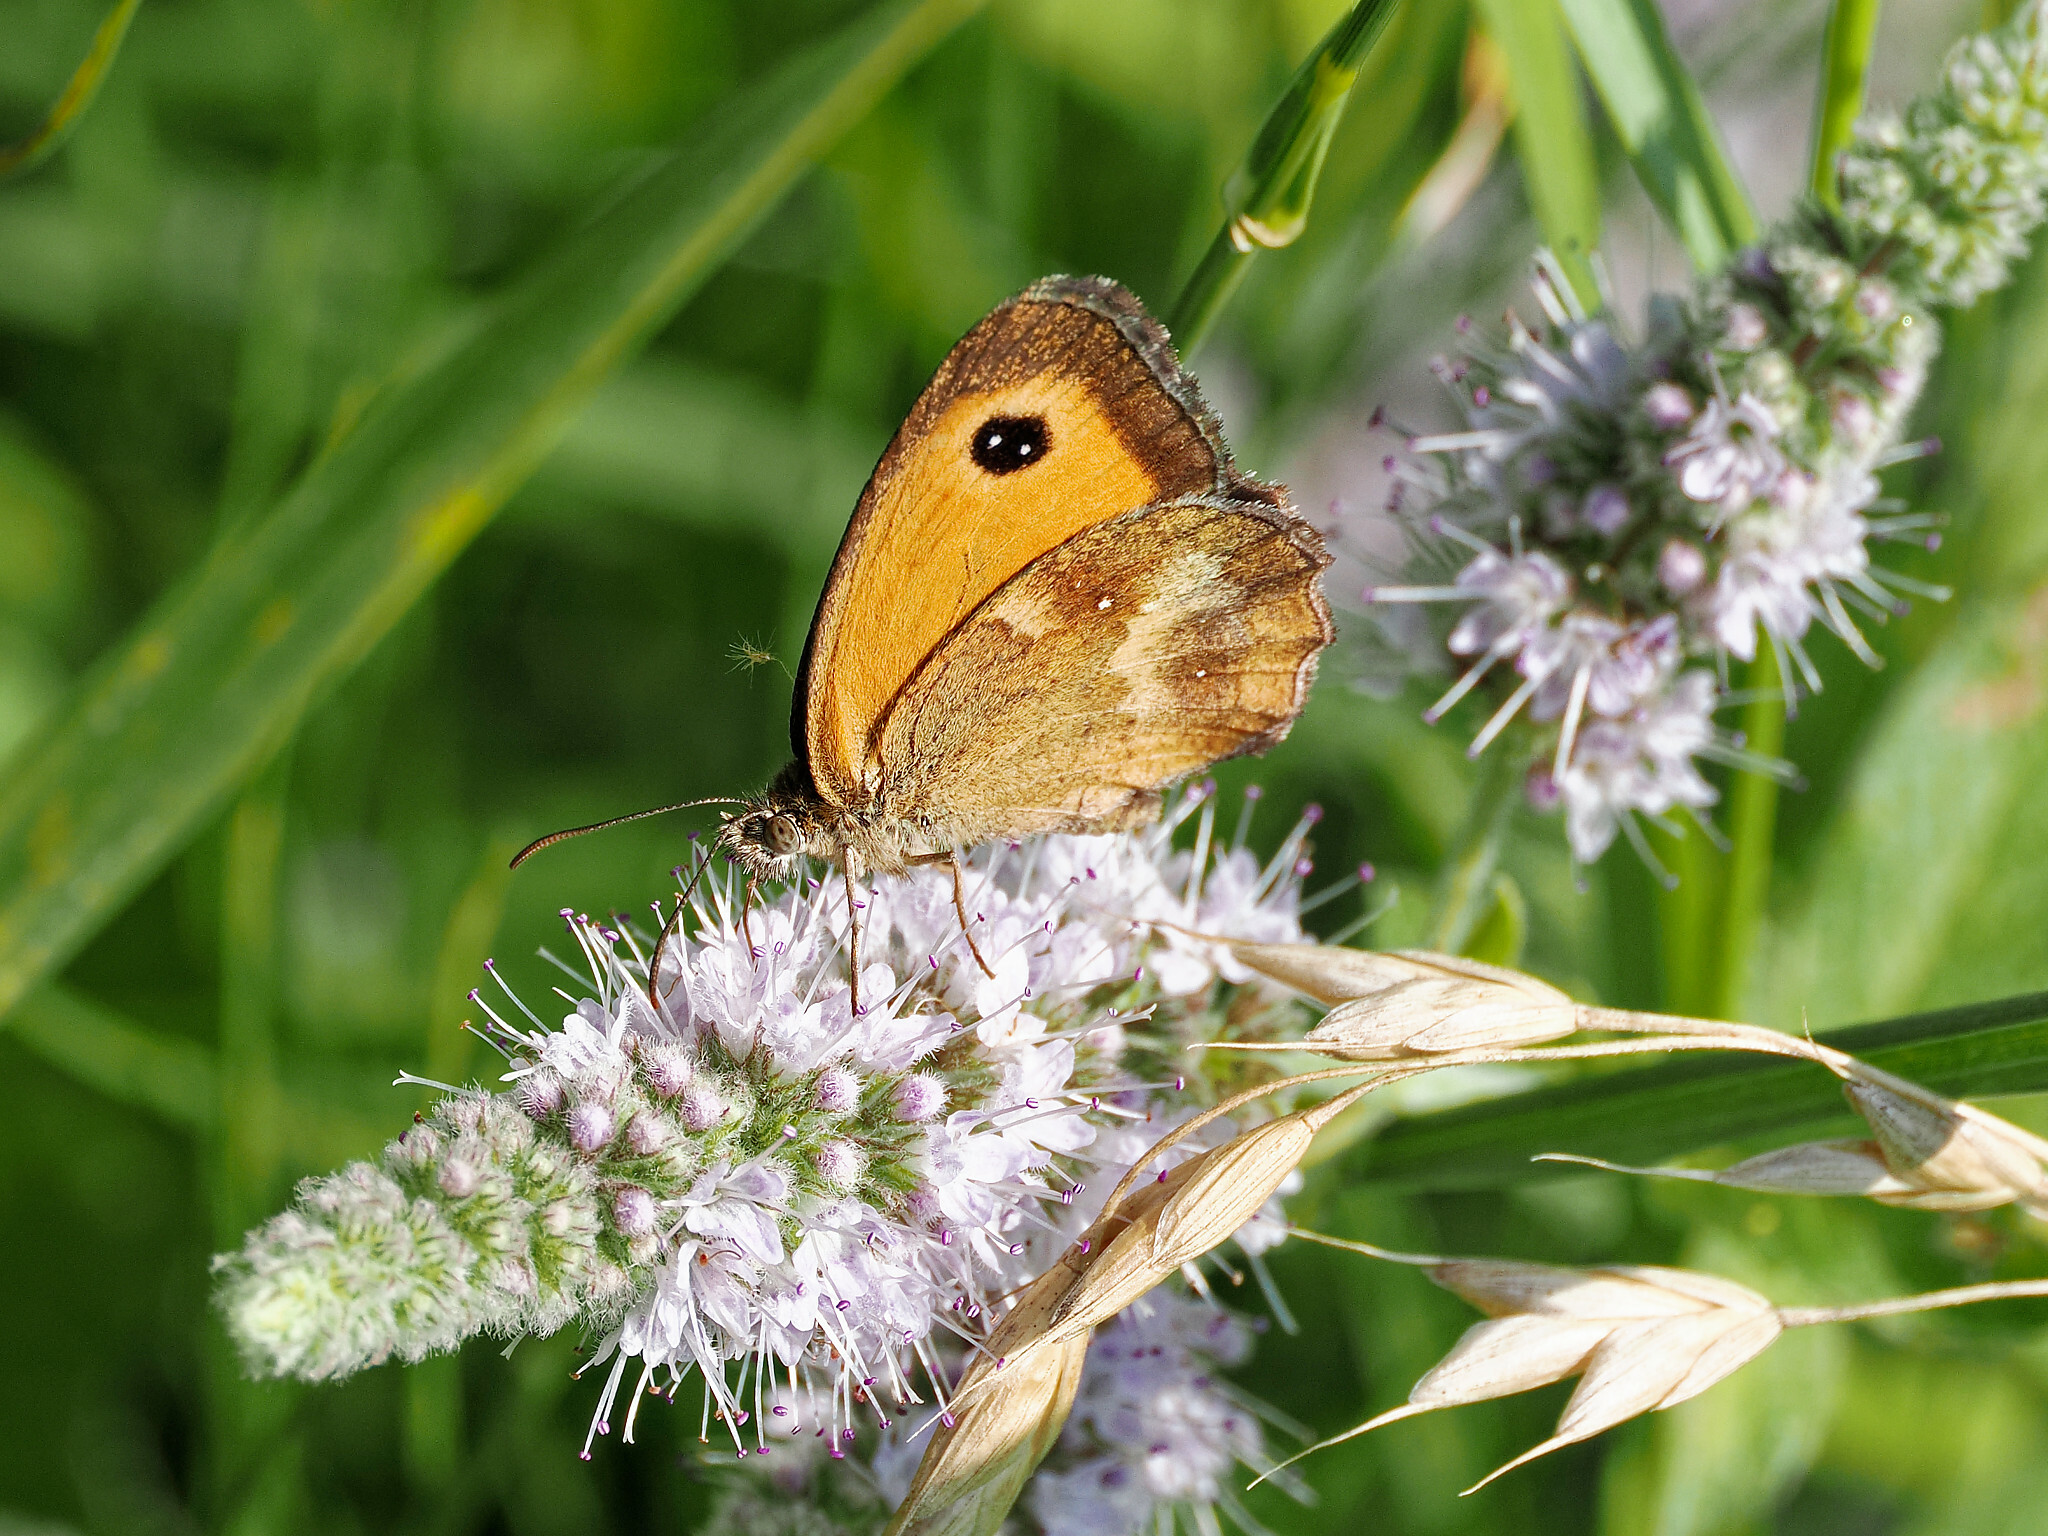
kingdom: Animalia
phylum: Arthropoda
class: Insecta
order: Lepidoptera
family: Nymphalidae
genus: Pyronia
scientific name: Pyronia tithonus
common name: Gatekeeper
